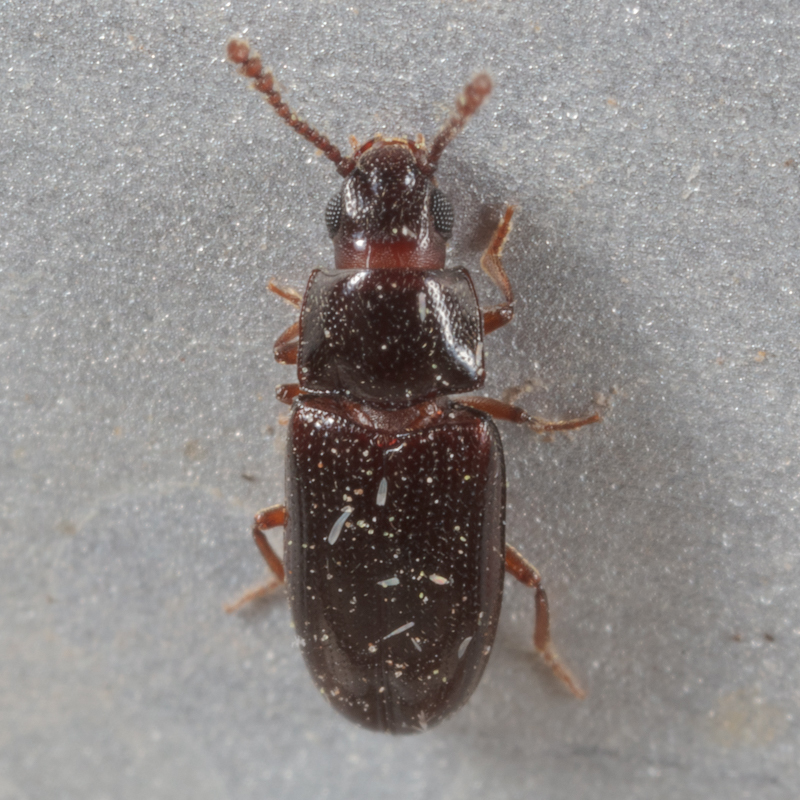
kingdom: Animalia
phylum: Arthropoda
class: Insecta
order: Coleoptera
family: Erotylidae
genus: Pharaxonotha
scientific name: Pharaxonotha kirschii
